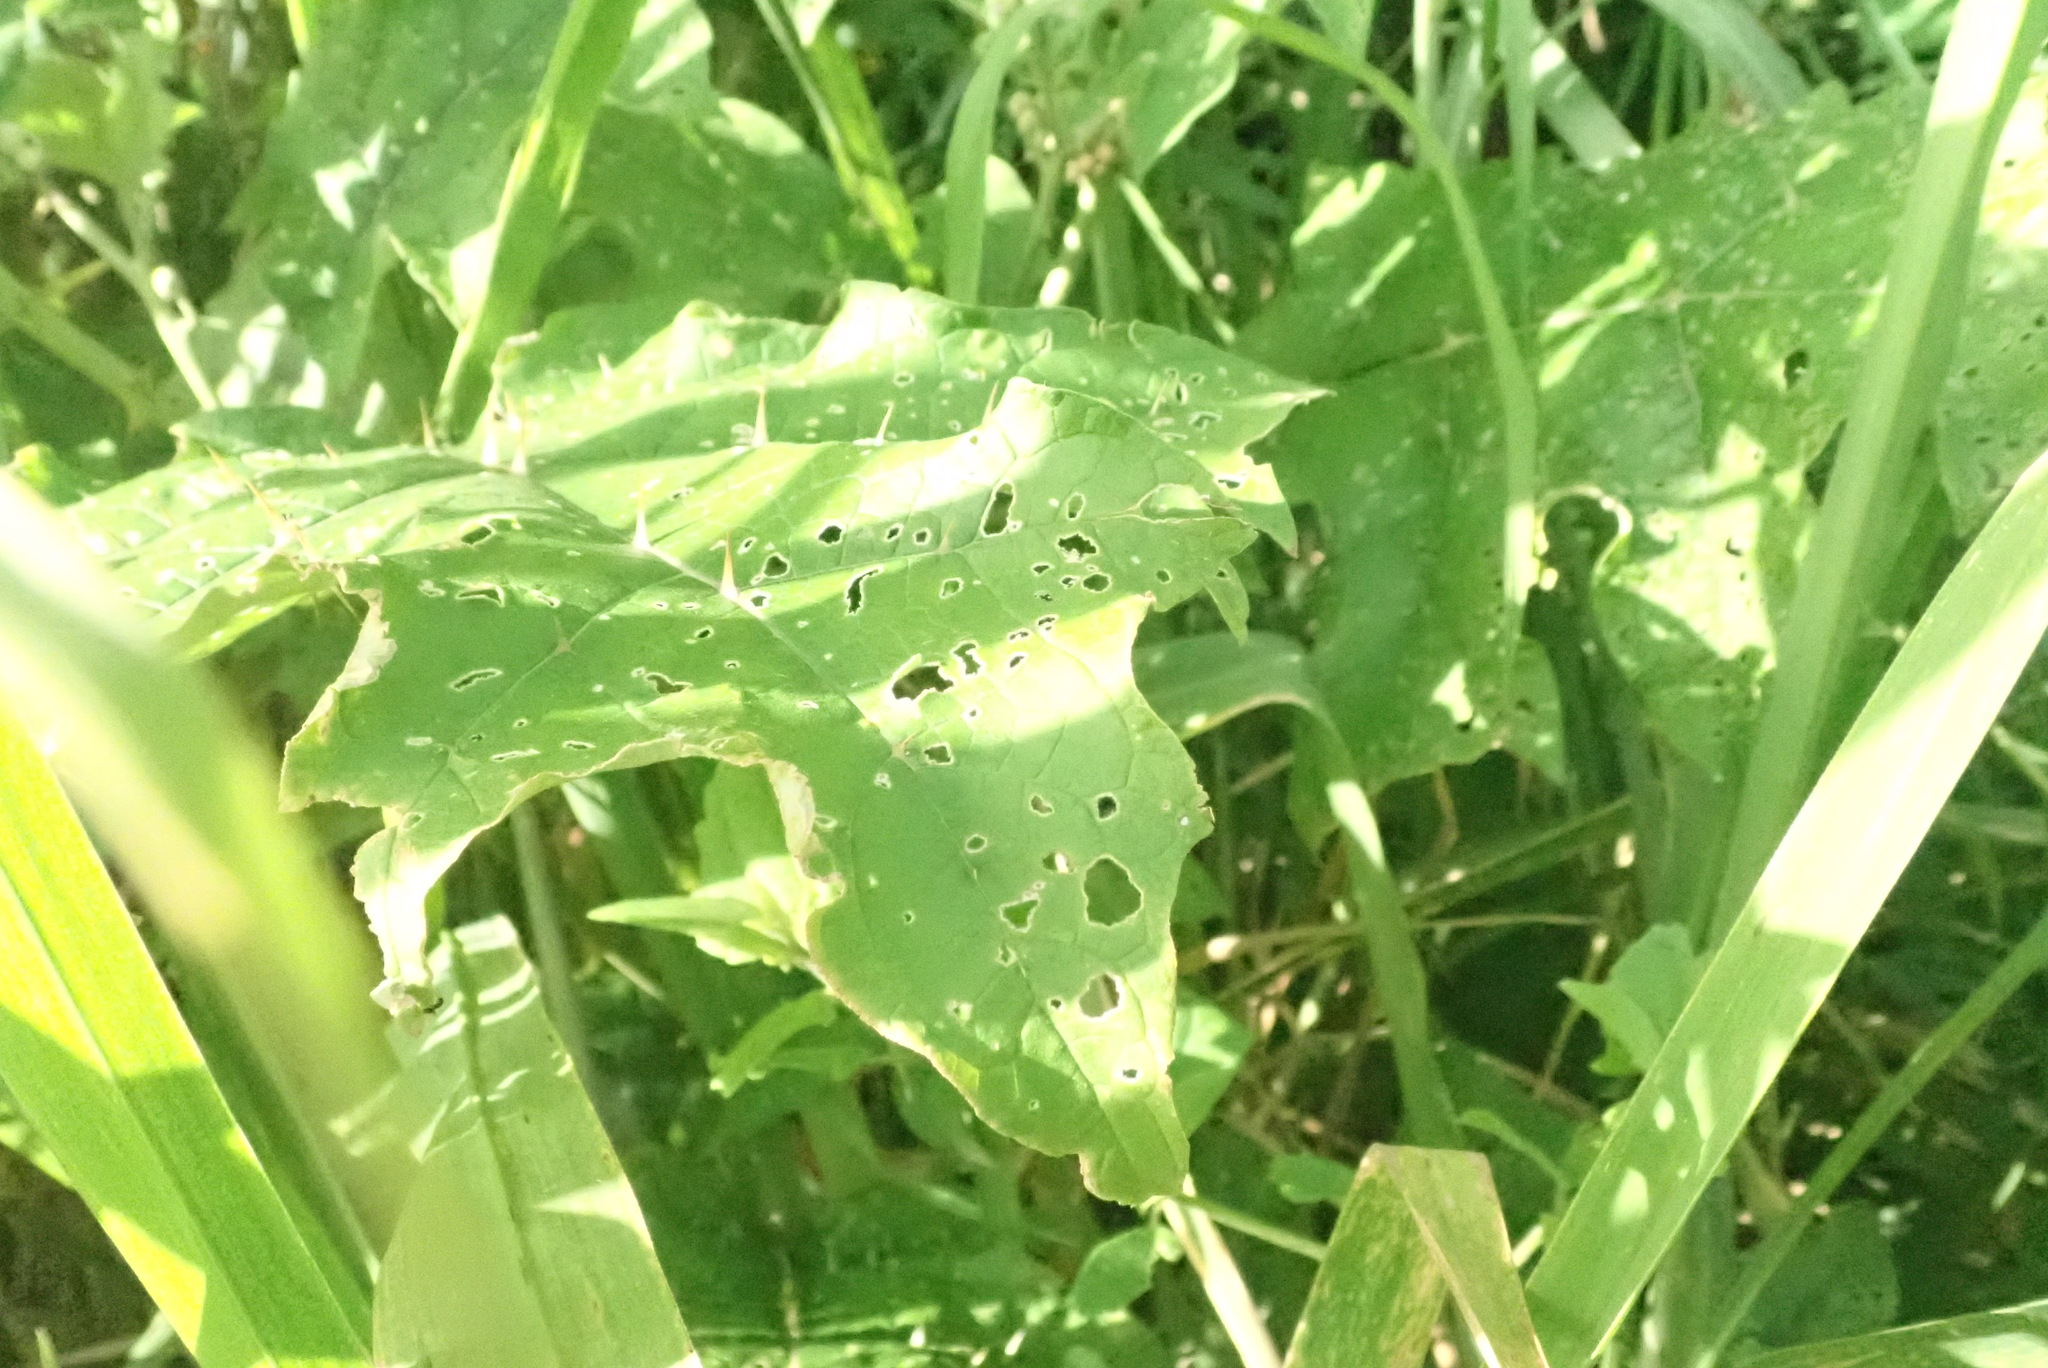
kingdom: Plantae
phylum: Tracheophyta
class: Magnoliopsida
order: Solanales
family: Solanaceae
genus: Solanum
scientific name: Solanum
